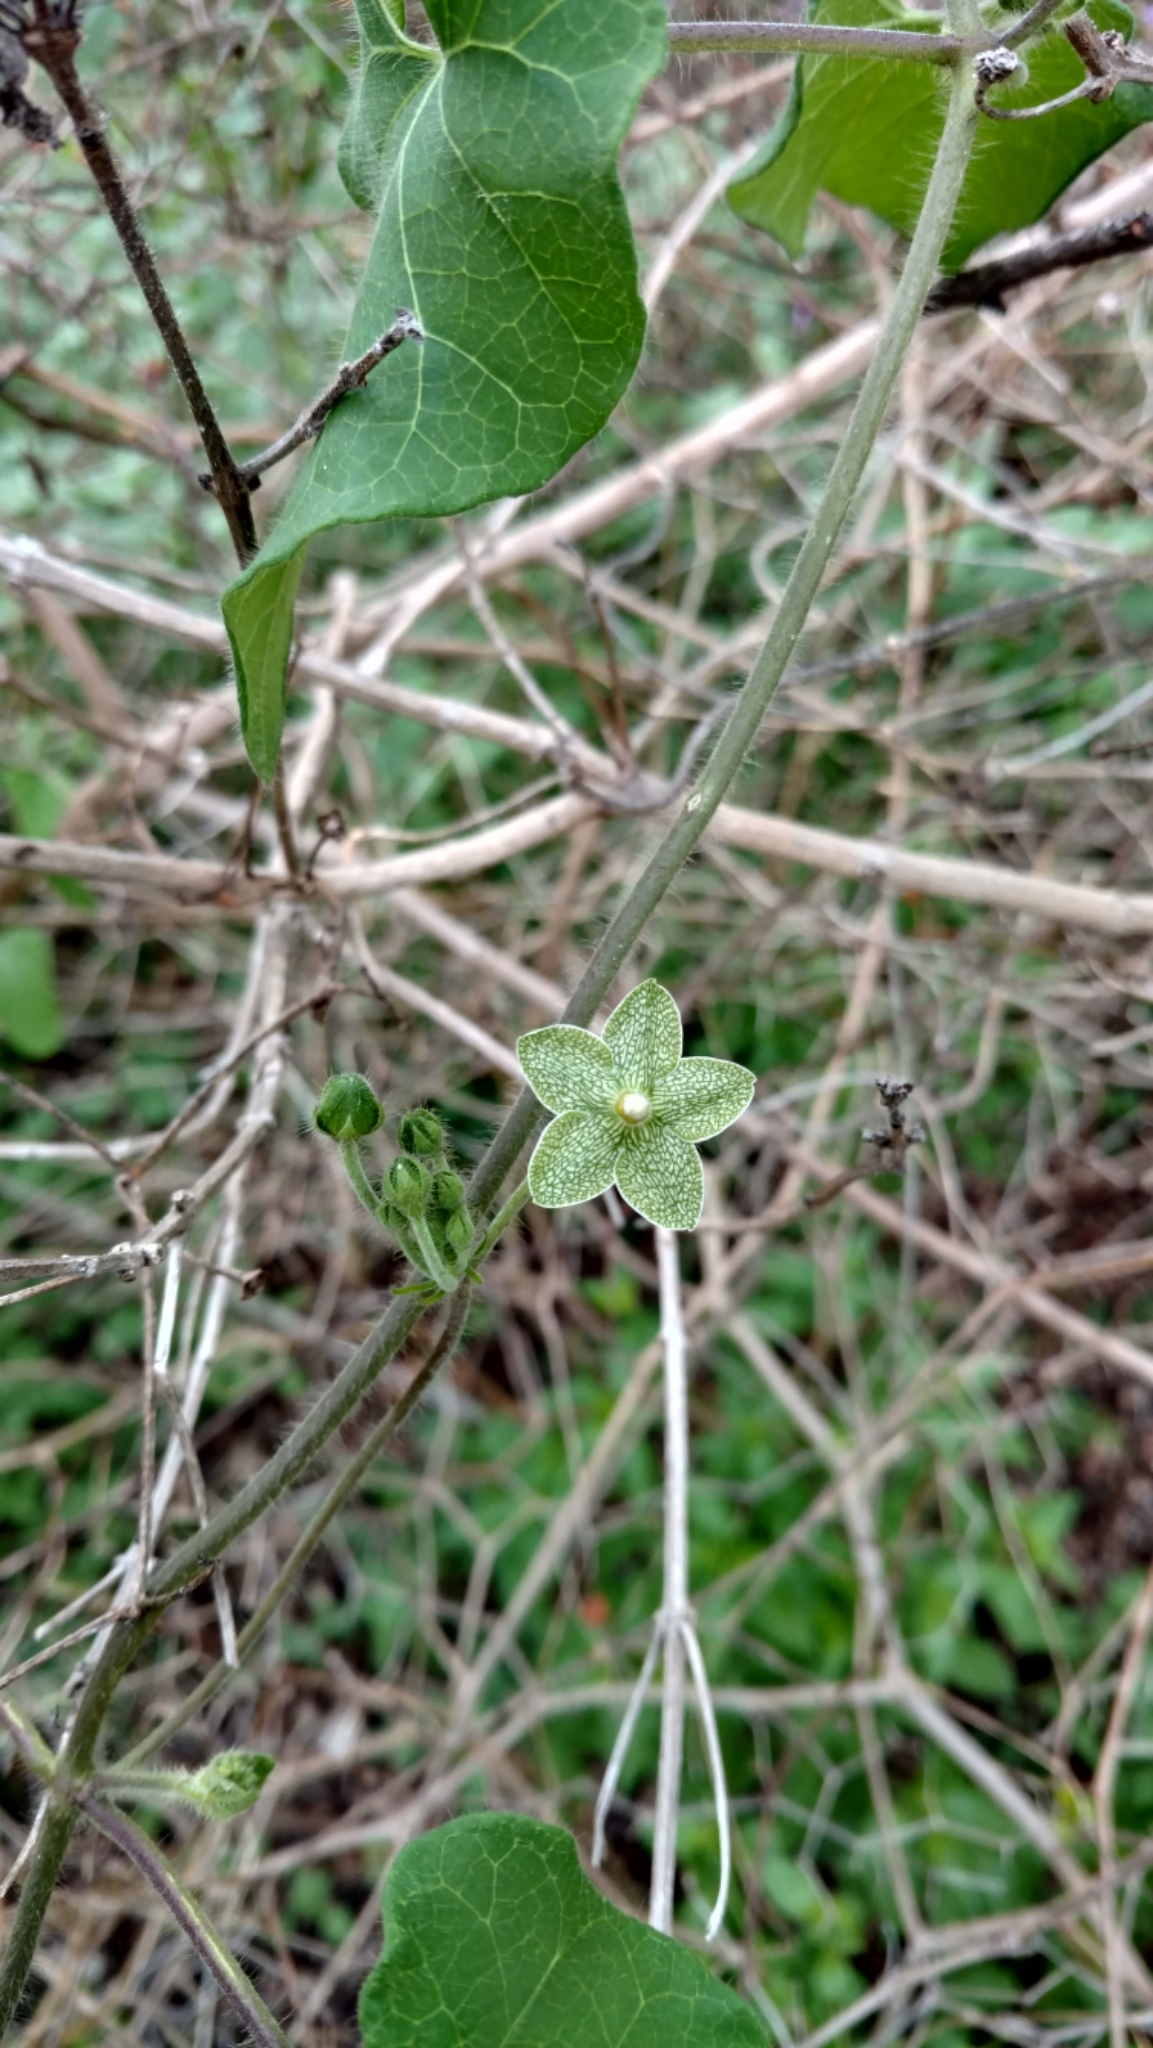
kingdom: Plantae
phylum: Tracheophyta
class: Magnoliopsida
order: Gentianales
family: Apocynaceae
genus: Dictyanthus
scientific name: Dictyanthus reticulatus
